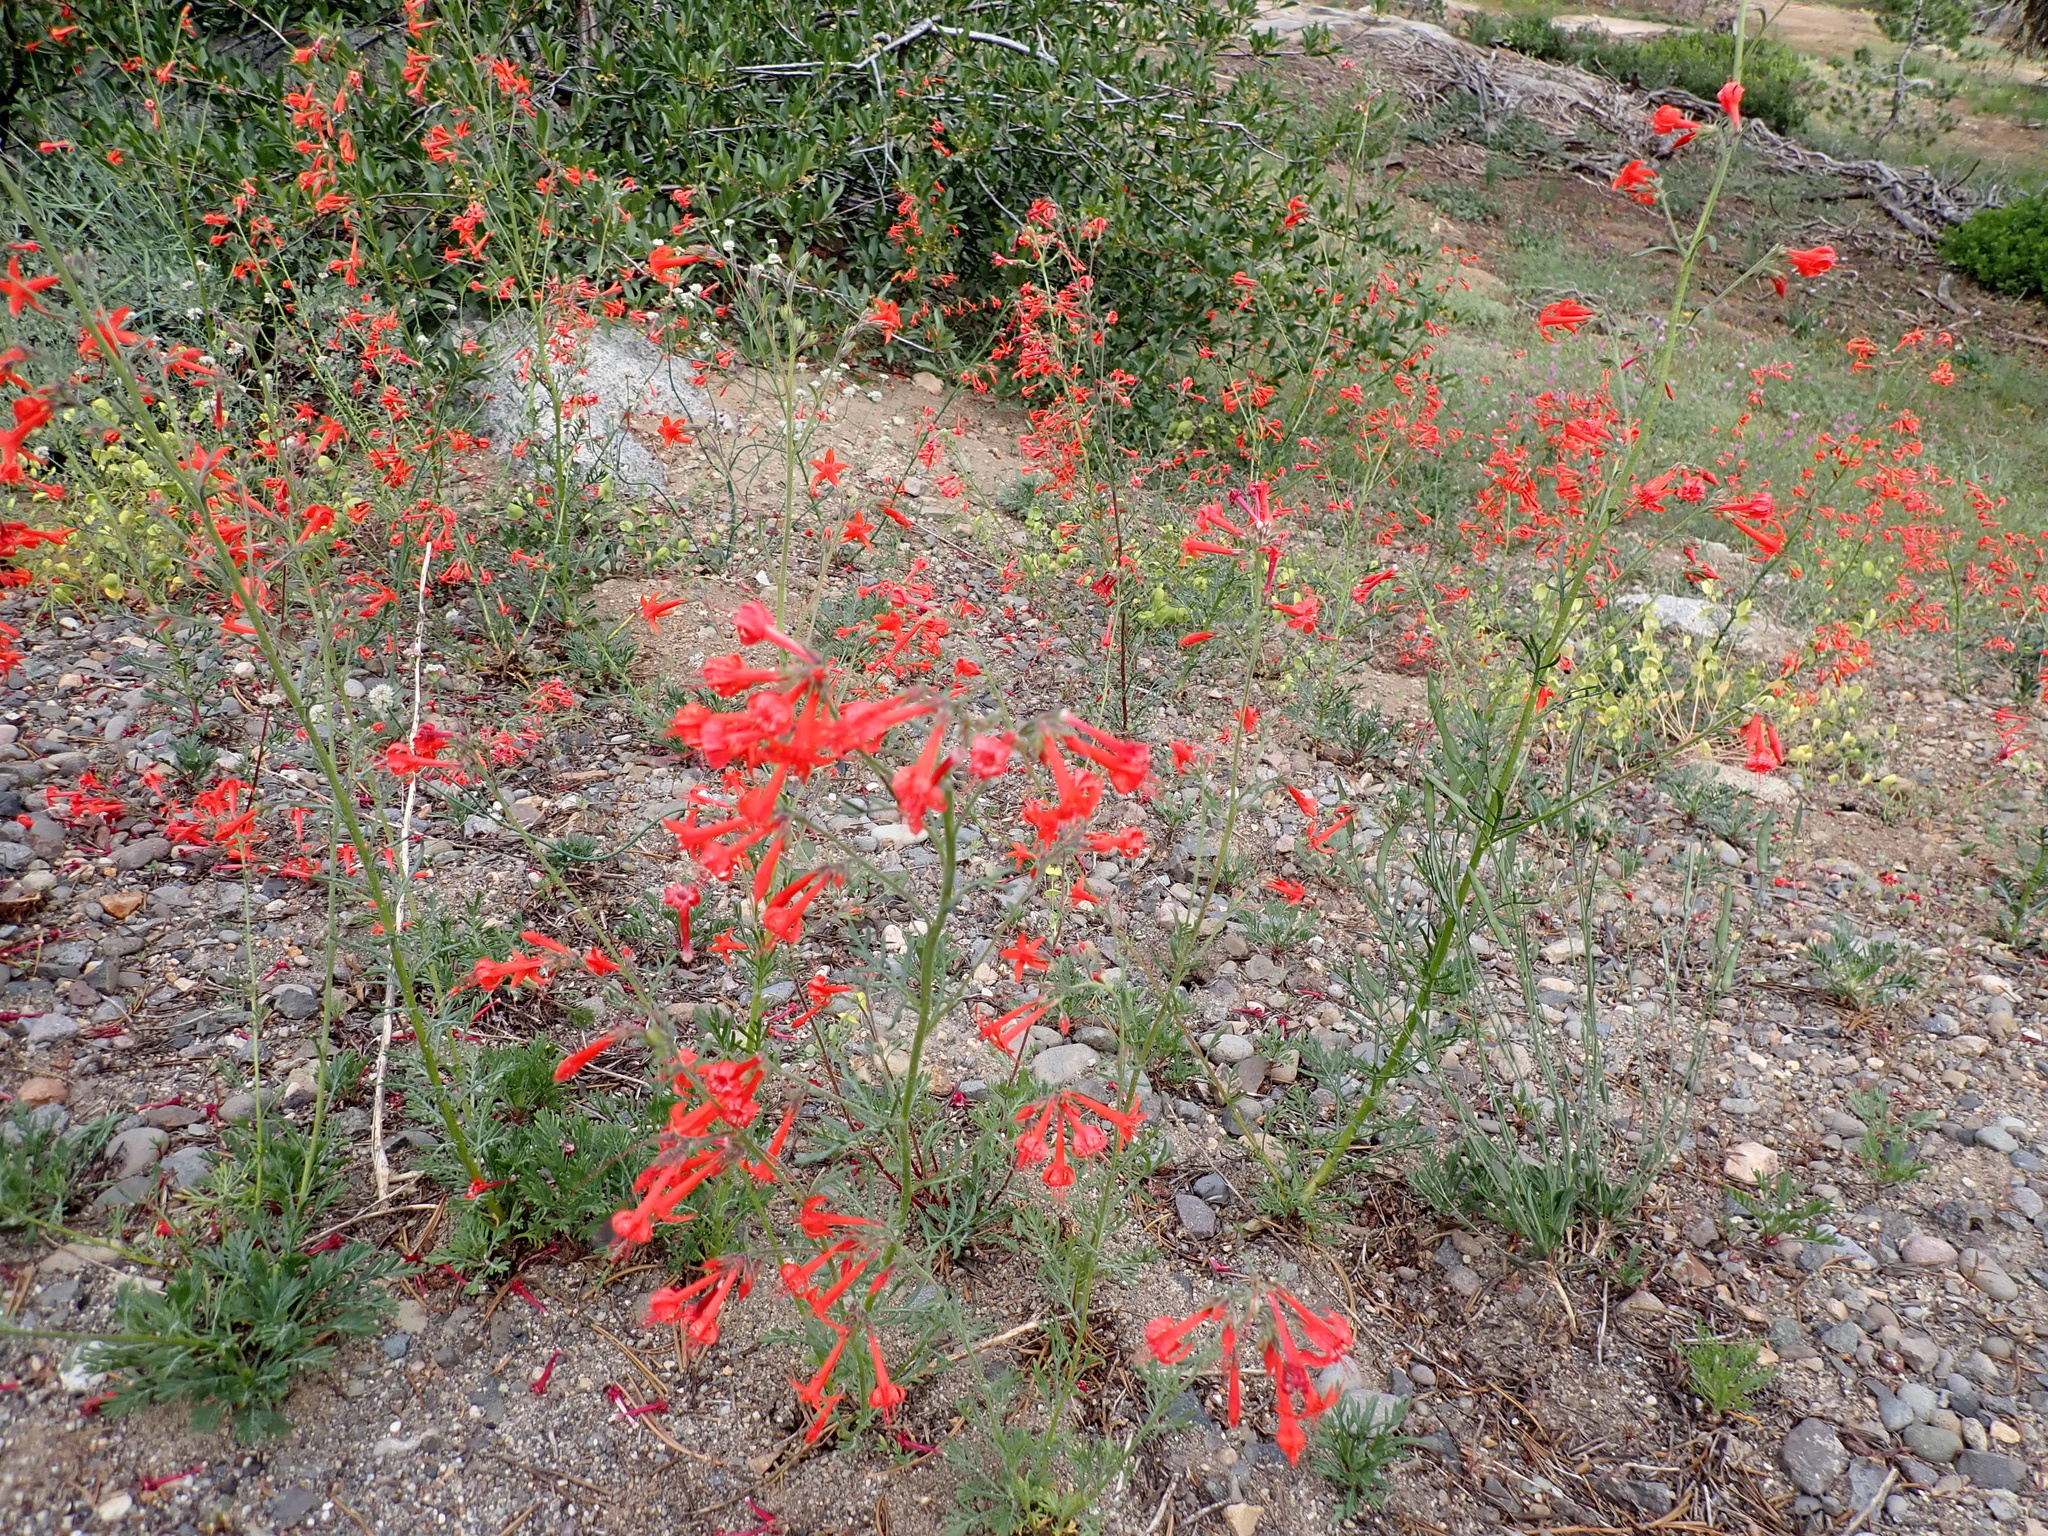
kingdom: Plantae
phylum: Tracheophyta
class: Magnoliopsida
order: Ericales
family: Polemoniaceae
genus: Ipomopsis
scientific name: Ipomopsis aggregata
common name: Scarlet gilia
